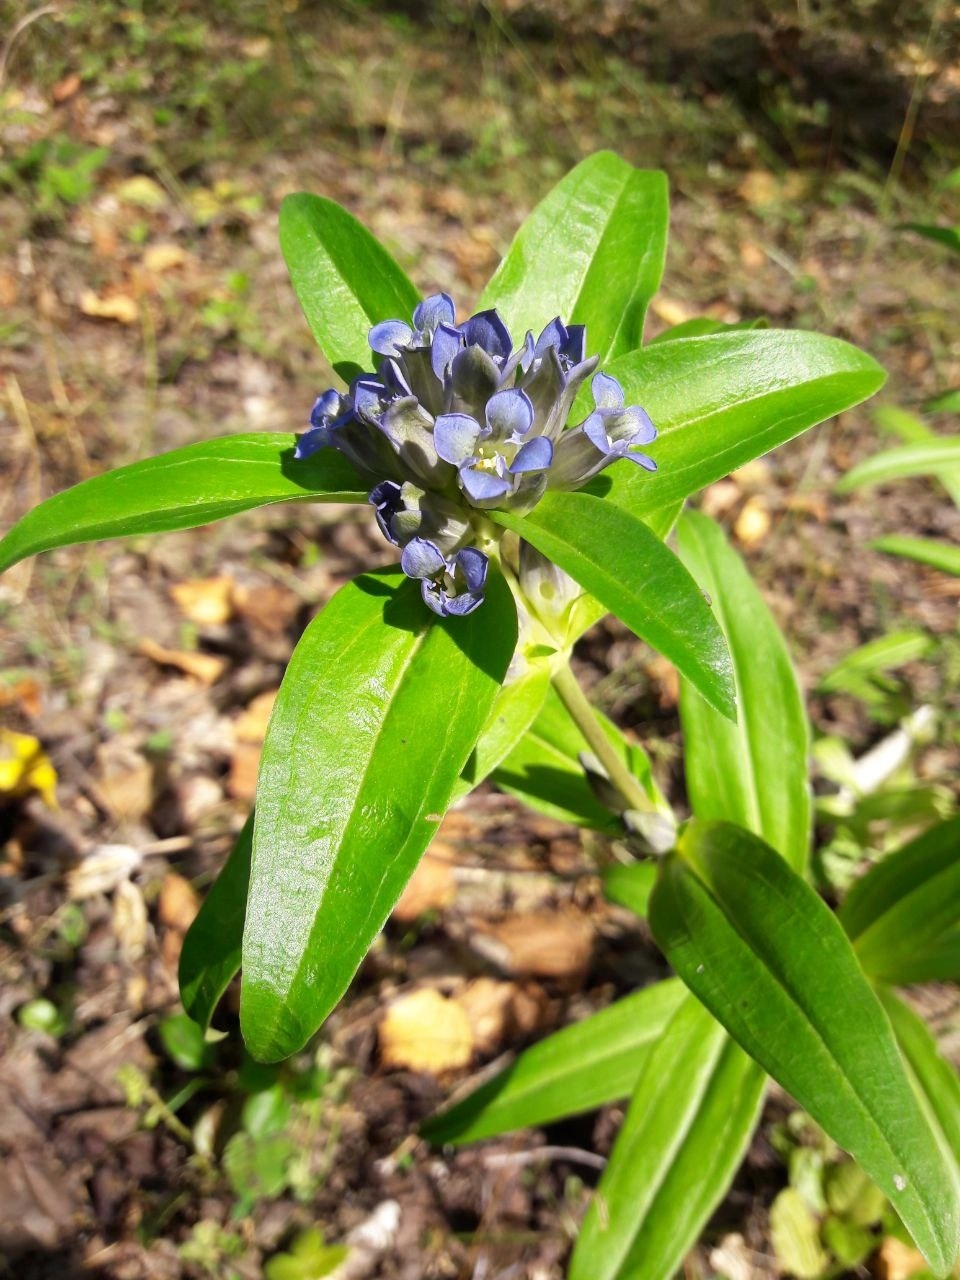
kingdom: Plantae
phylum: Tracheophyta
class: Magnoliopsida
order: Gentianales
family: Gentianaceae
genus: Gentiana
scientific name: Gentiana cruciata
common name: Cross gentian
